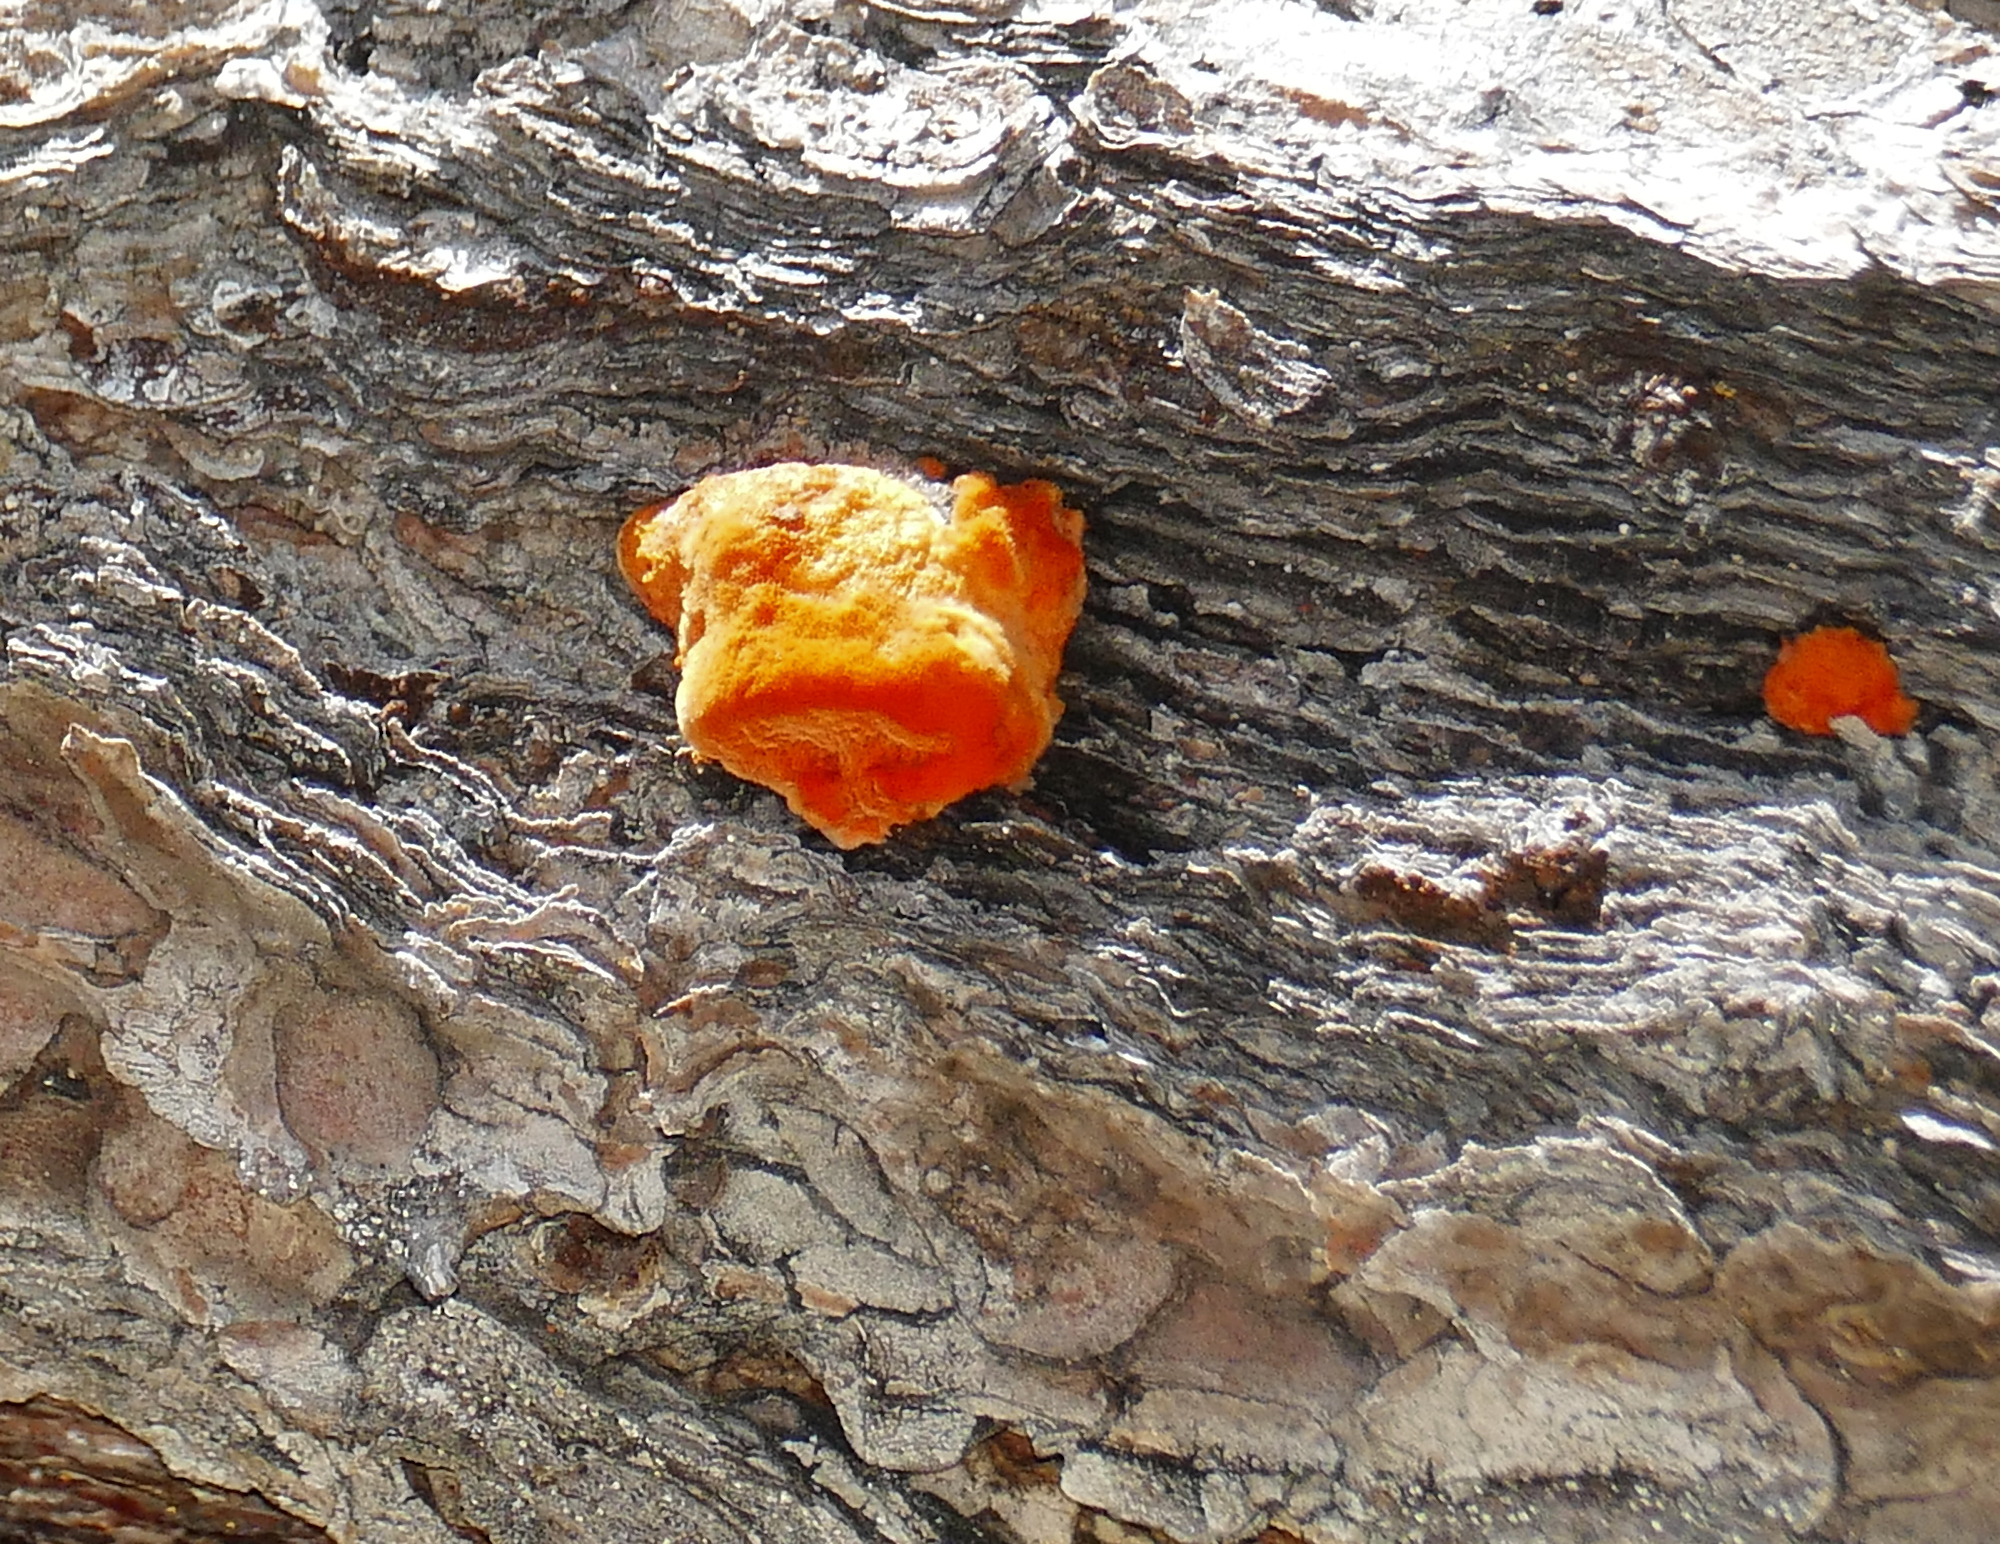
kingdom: Fungi
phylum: Basidiomycota
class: Agaricomycetes
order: Polyporales
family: Polyporaceae
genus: Trametes
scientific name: Trametes cinnabarina
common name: Northern cinnabar polypore
